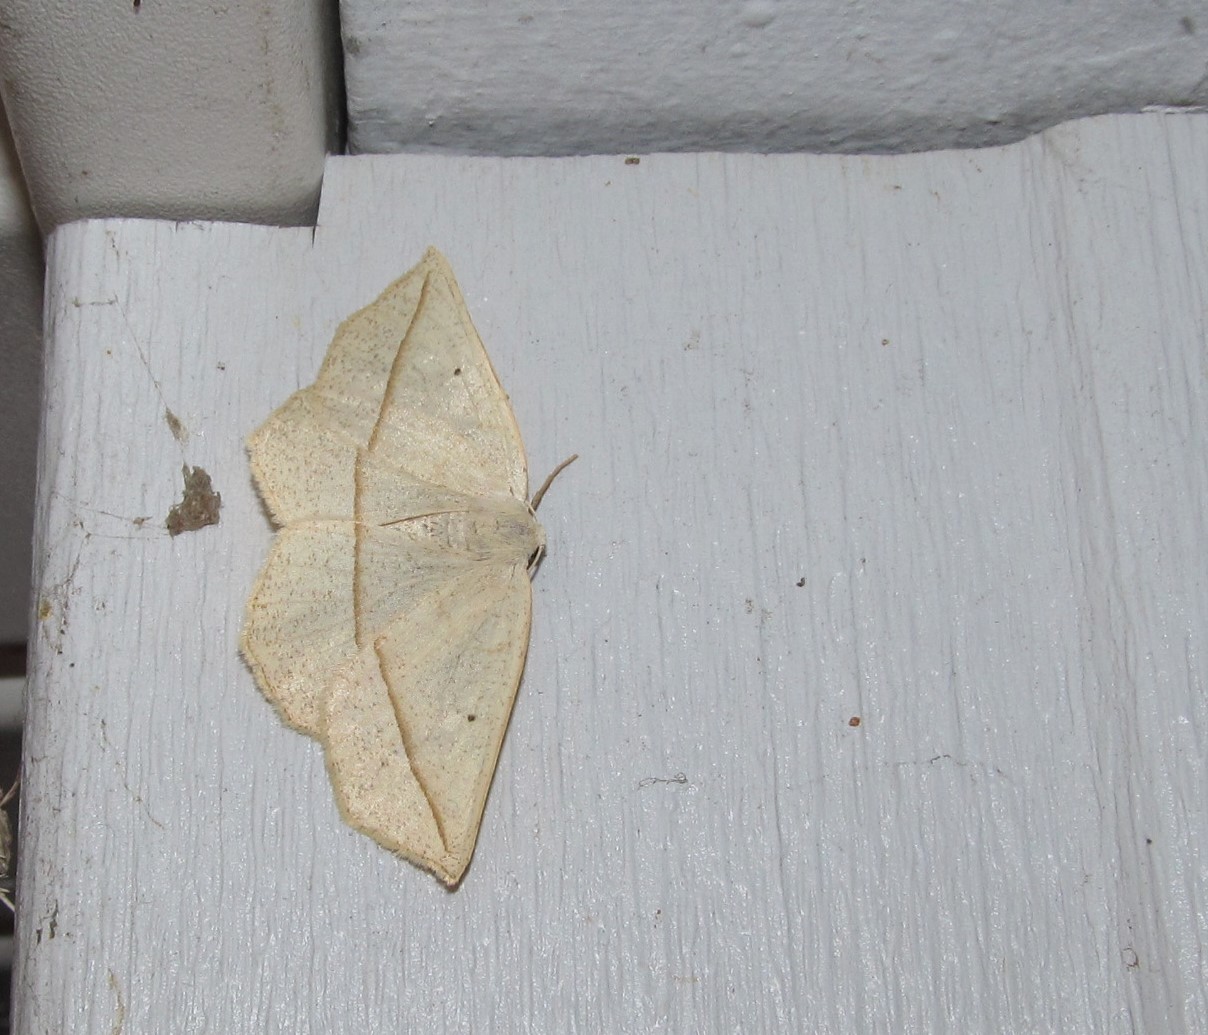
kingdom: Animalia
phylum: Arthropoda
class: Insecta
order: Lepidoptera
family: Geometridae
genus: Eusarca
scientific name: Eusarca confusaria
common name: Confused eusarca
